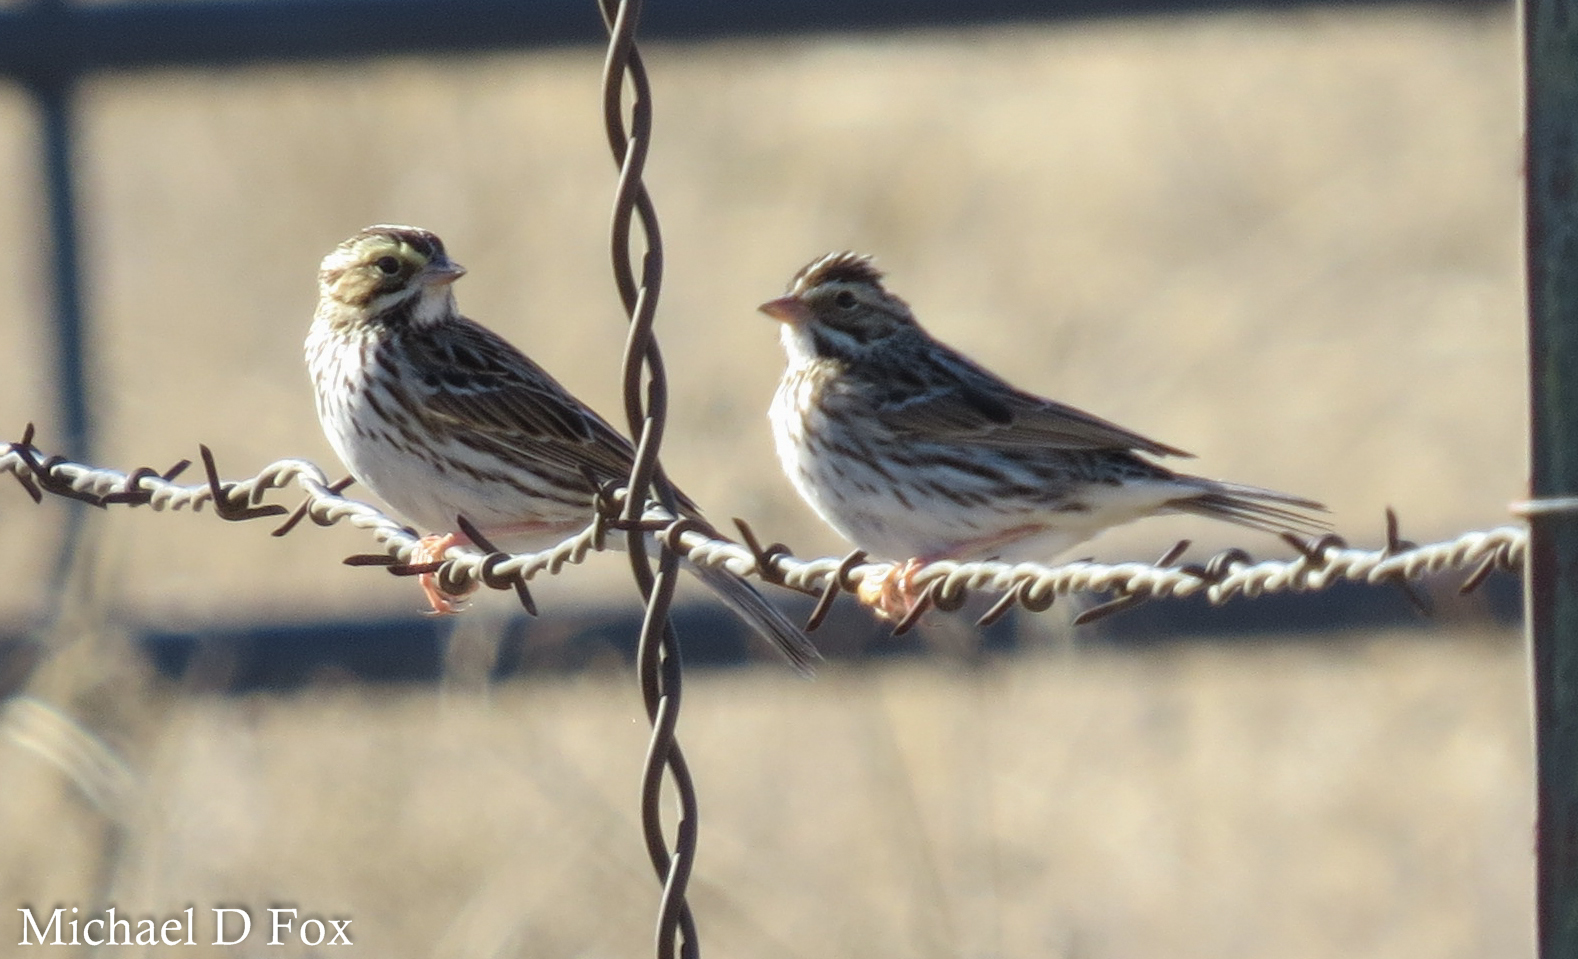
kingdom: Animalia
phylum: Chordata
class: Aves
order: Passeriformes
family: Passerellidae
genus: Passerculus
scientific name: Passerculus sandwichensis
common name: Savannah sparrow
